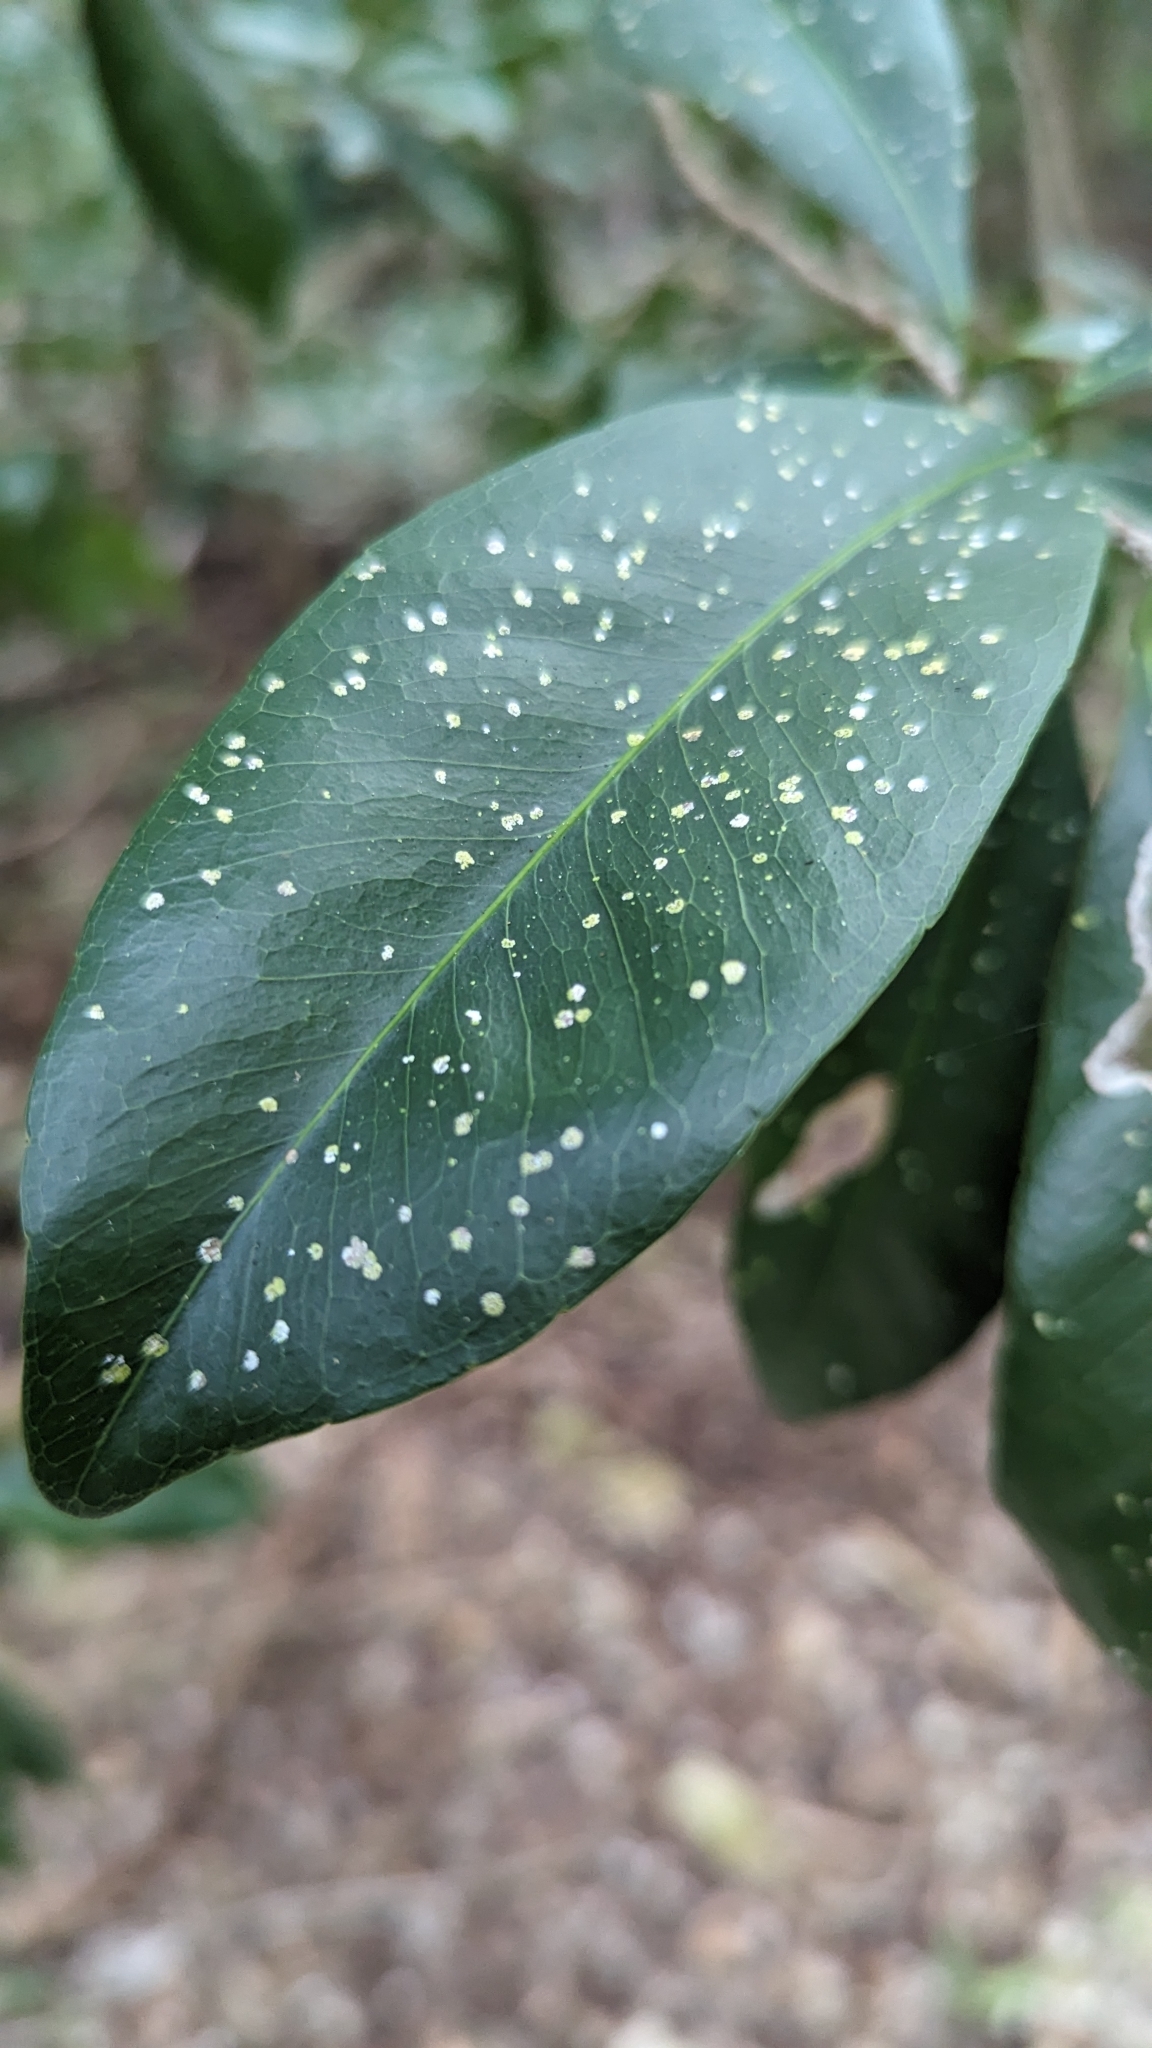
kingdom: Plantae
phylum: Tracheophyta
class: Magnoliopsida
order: Malpighiales
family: Euphorbiaceae
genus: Gymnanthes
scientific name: Gymnanthes lucida
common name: Oysterwood
